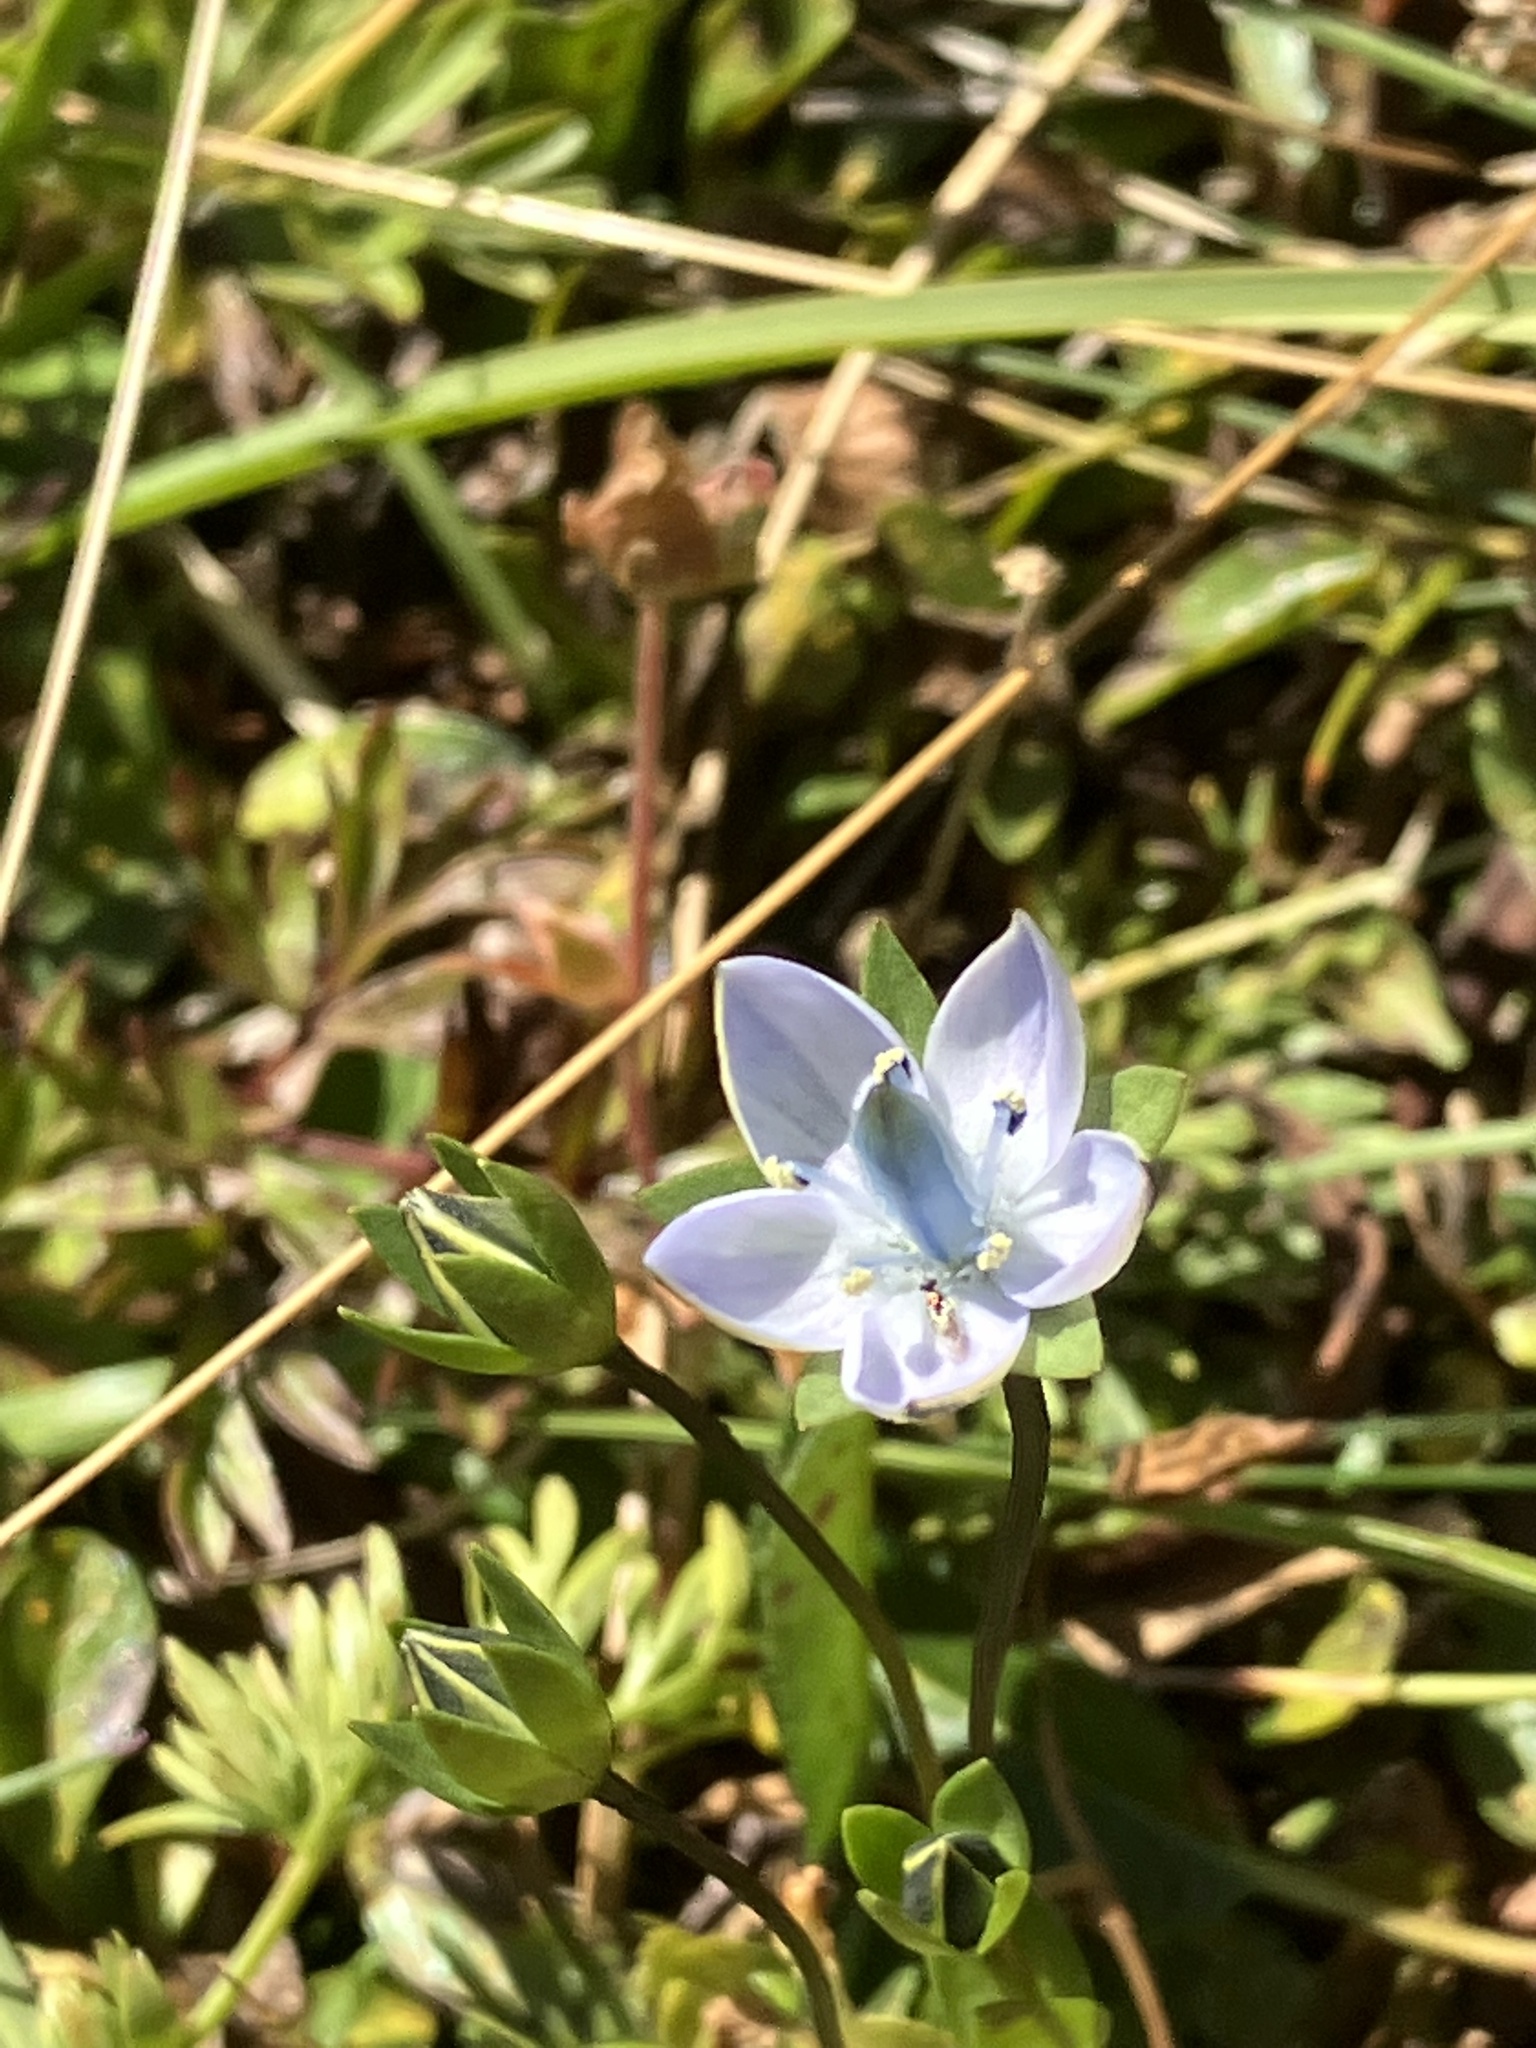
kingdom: Plantae
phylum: Tracheophyta
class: Magnoliopsida
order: Gentianales
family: Gentianaceae
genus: Lomatogonium
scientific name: Lomatogonium carinthiacum
